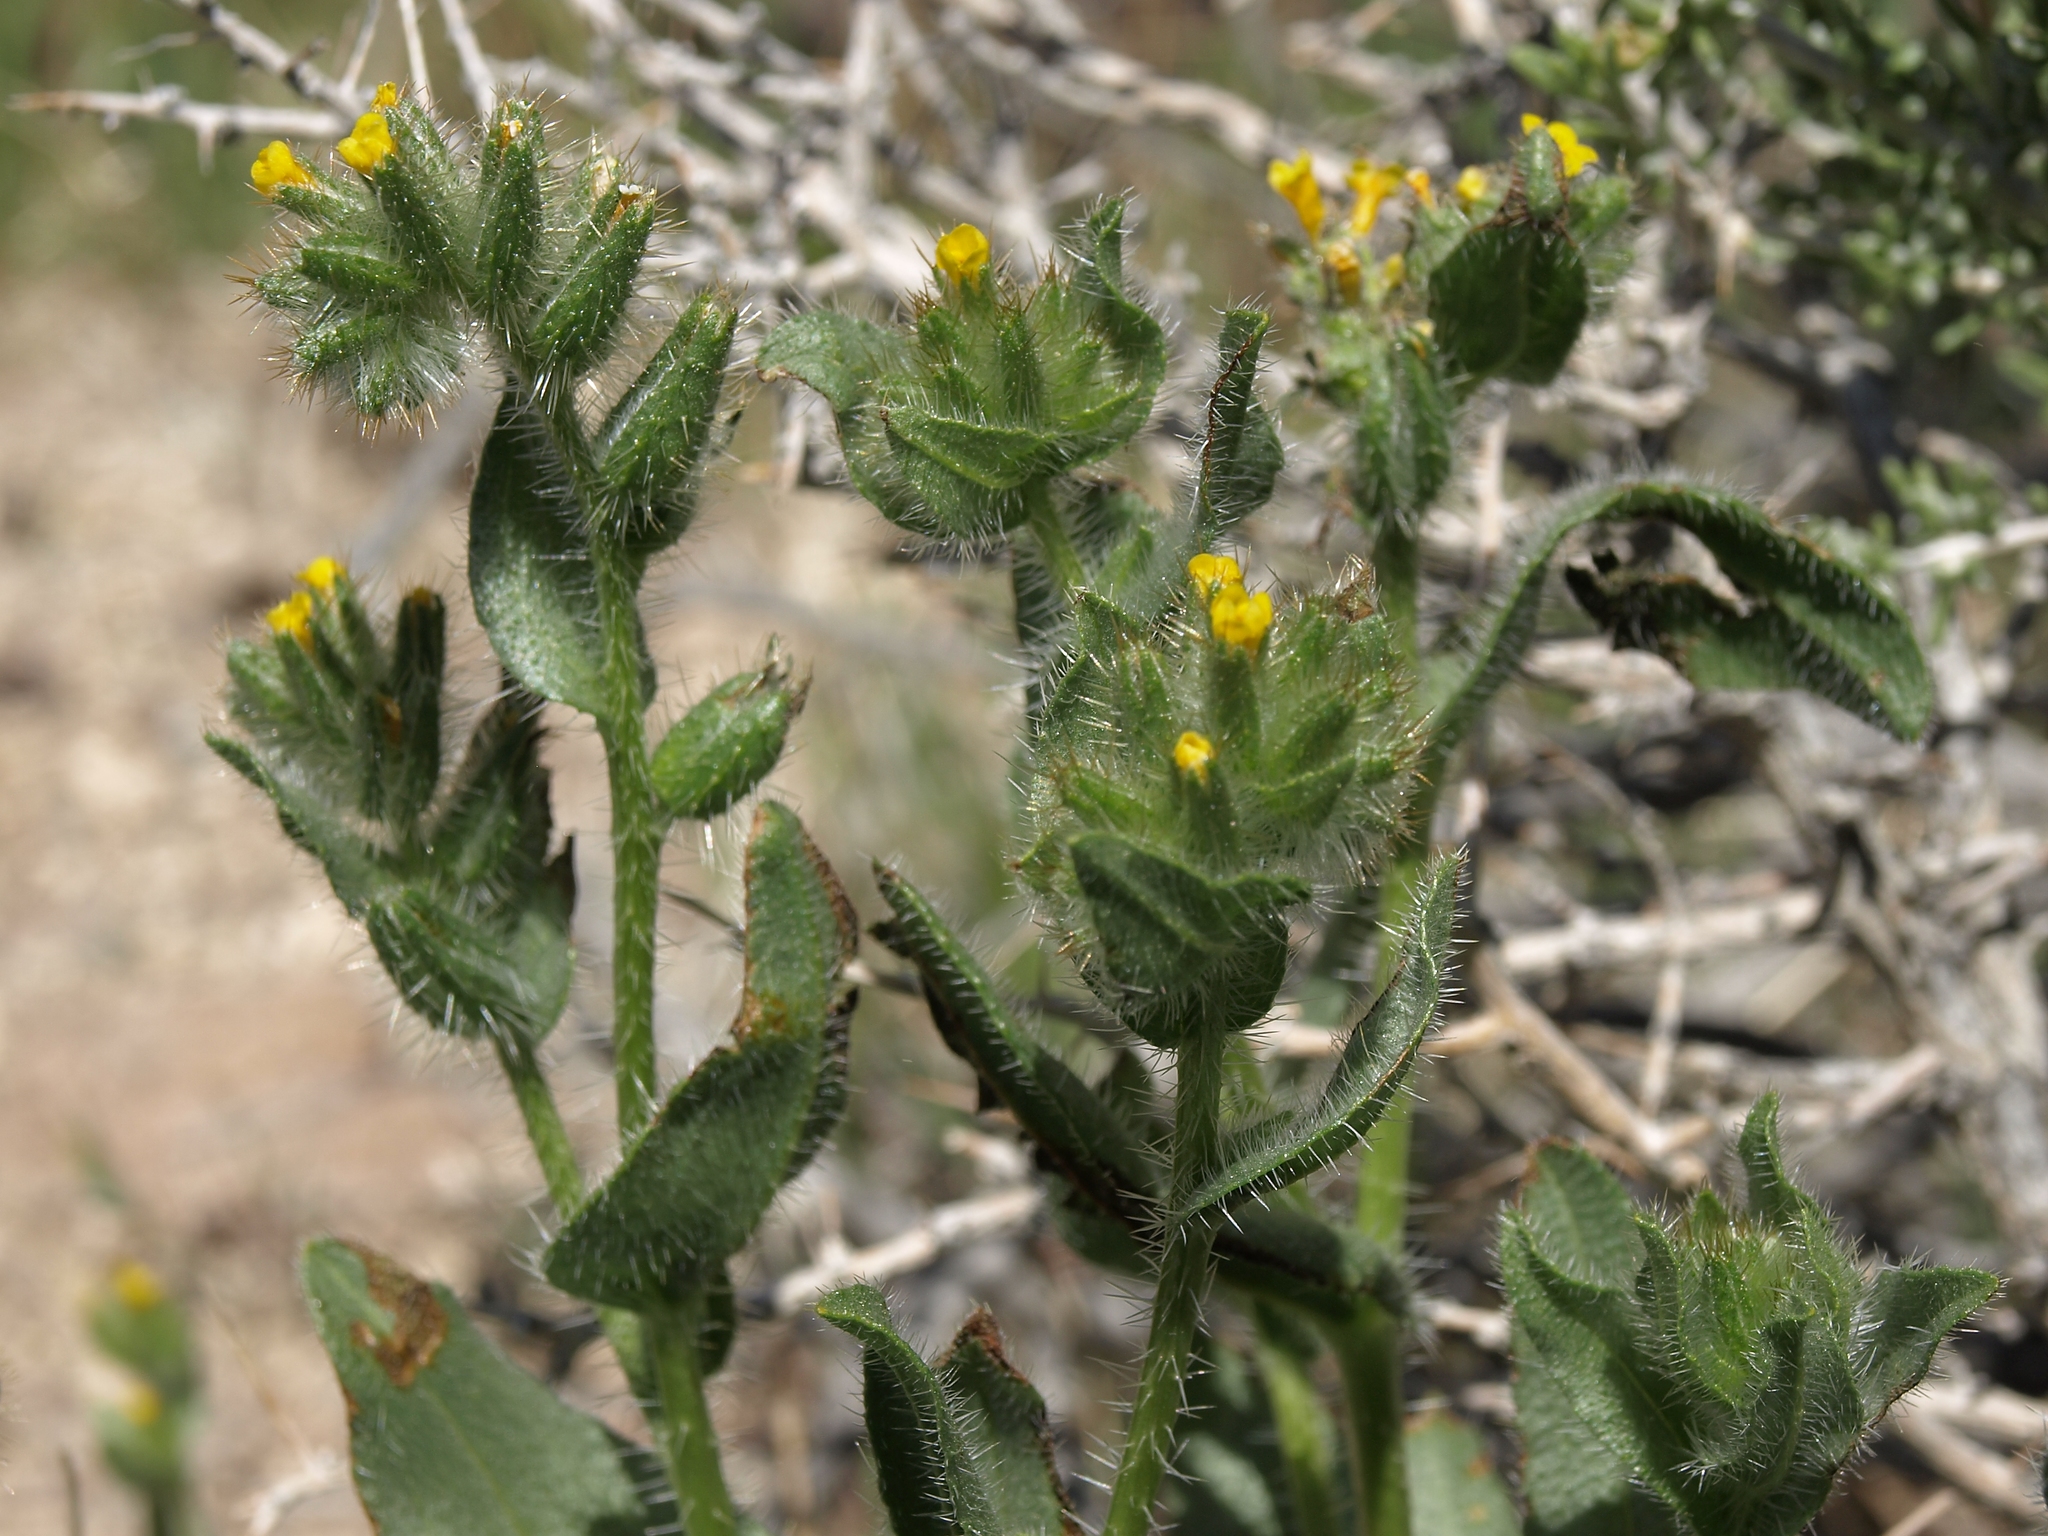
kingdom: Plantae
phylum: Tracheophyta
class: Magnoliopsida
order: Boraginales
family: Boraginaceae
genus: Amsinckia
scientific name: Amsinckia tessellata
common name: Tessellate fiddleneck
